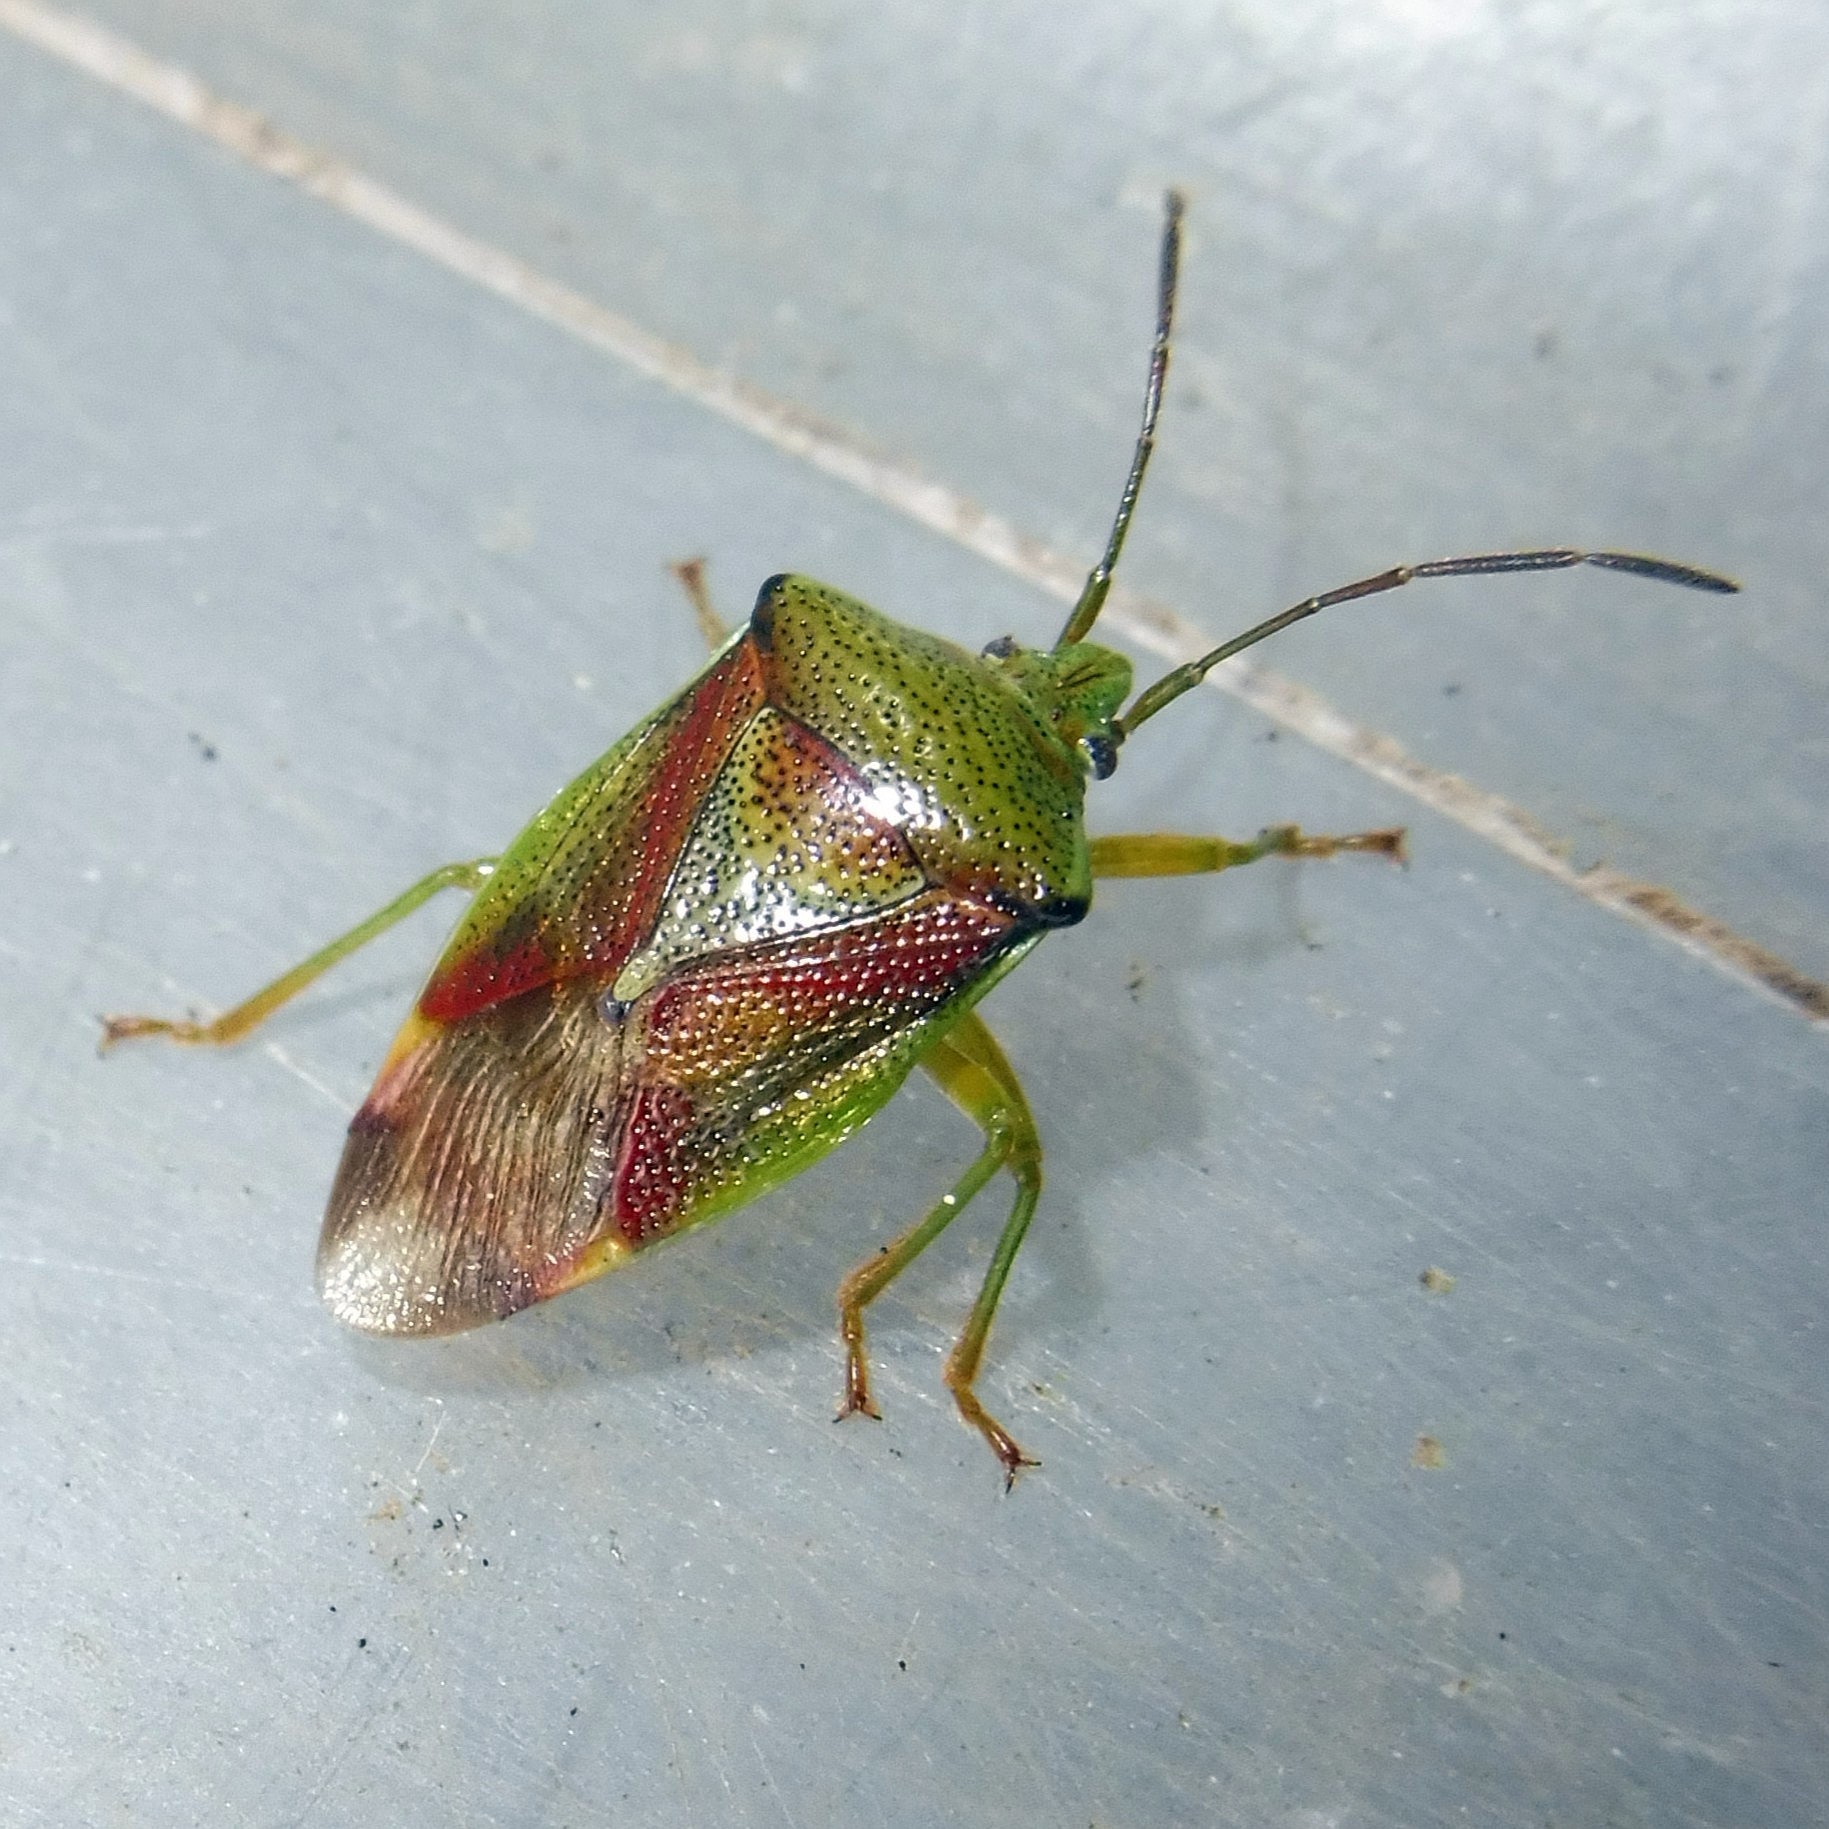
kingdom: Animalia
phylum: Arthropoda
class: Insecta
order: Hemiptera
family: Acanthosomatidae
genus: Elasmostethus
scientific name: Elasmostethus interstinctus
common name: Birch shieldbug
